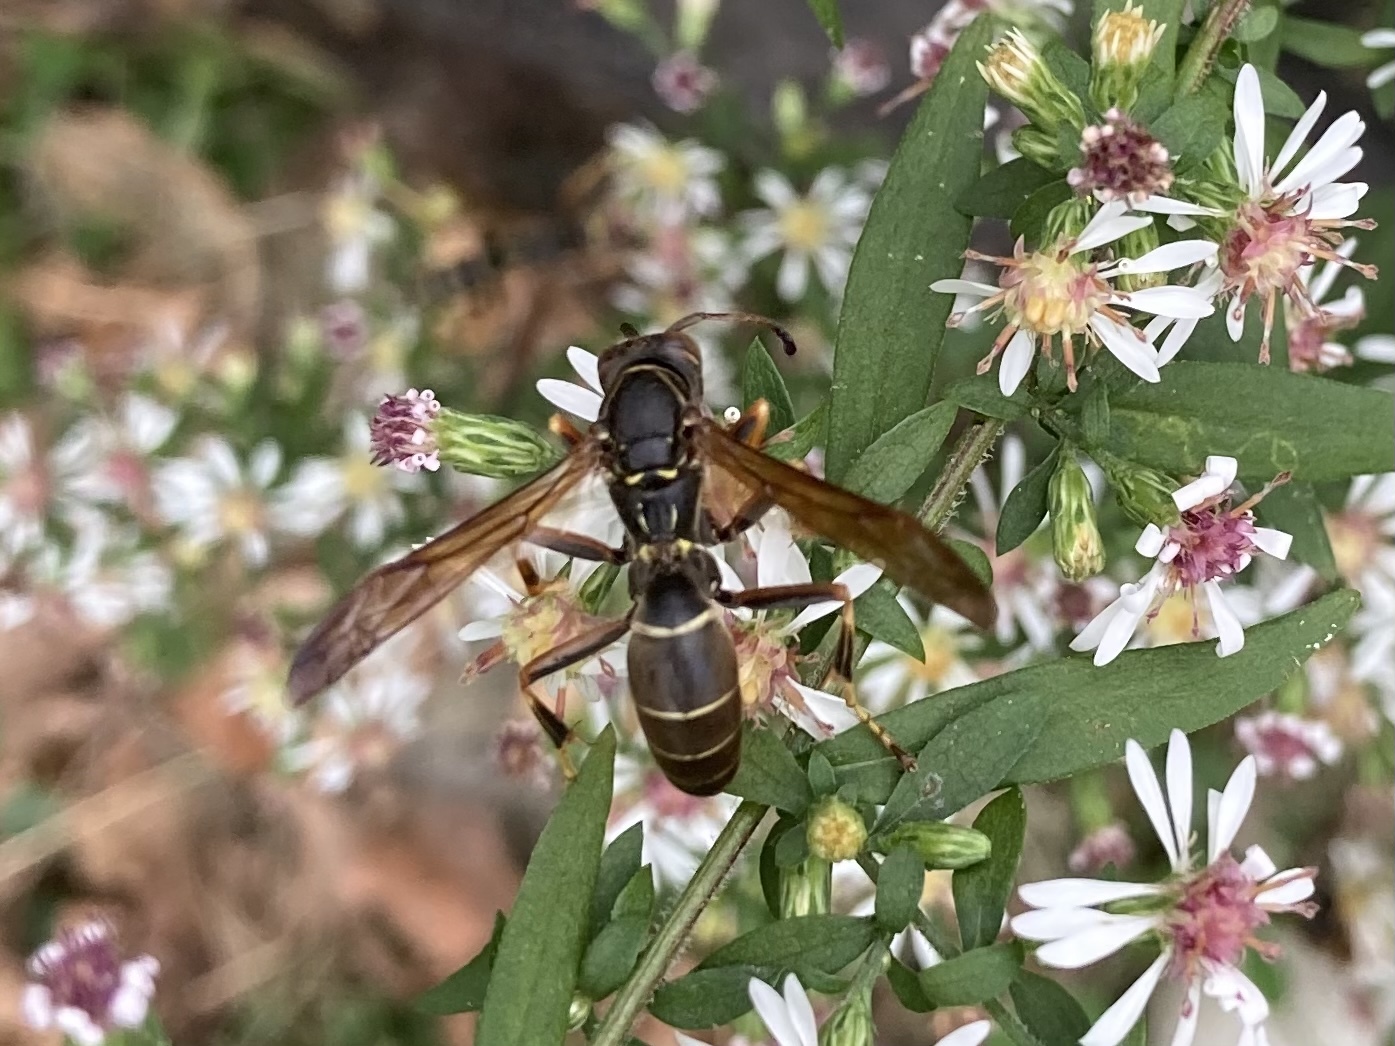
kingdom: Animalia
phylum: Arthropoda
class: Insecta
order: Hymenoptera
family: Eumenidae
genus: Polistes
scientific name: Polistes fuscatus
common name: Dark paper wasp
